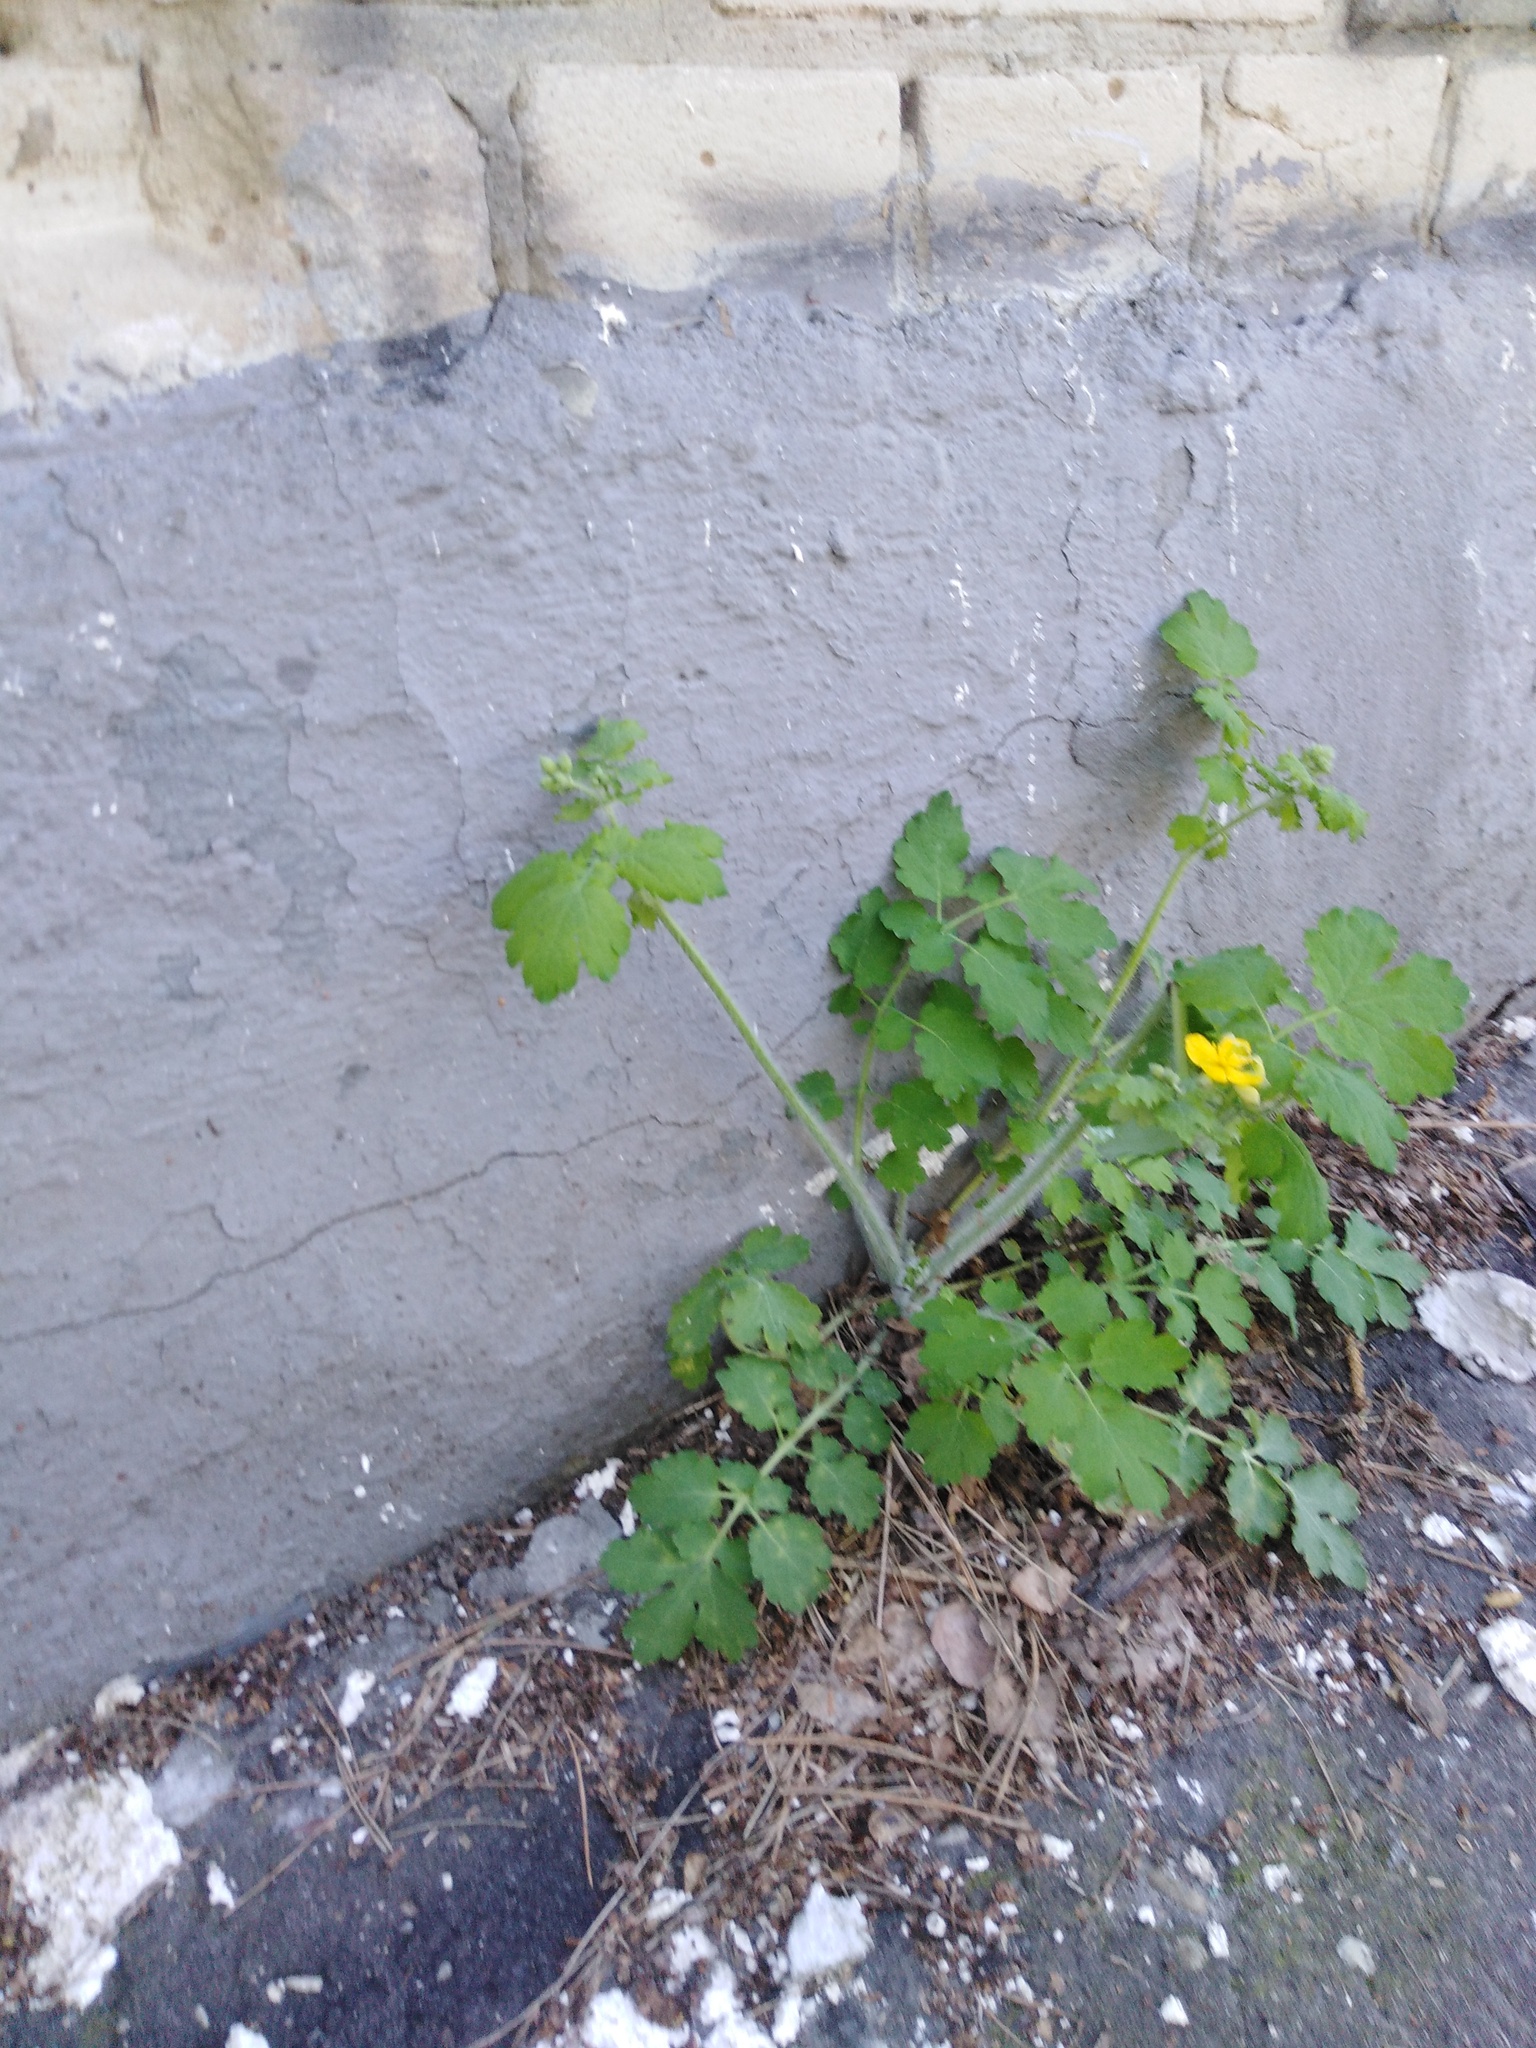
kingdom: Plantae
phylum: Tracheophyta
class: Magnoliopsida
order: Ranunculales
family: Papaveraceae
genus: Chelidonium
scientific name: Chelidonium majus
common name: Greater celandine
